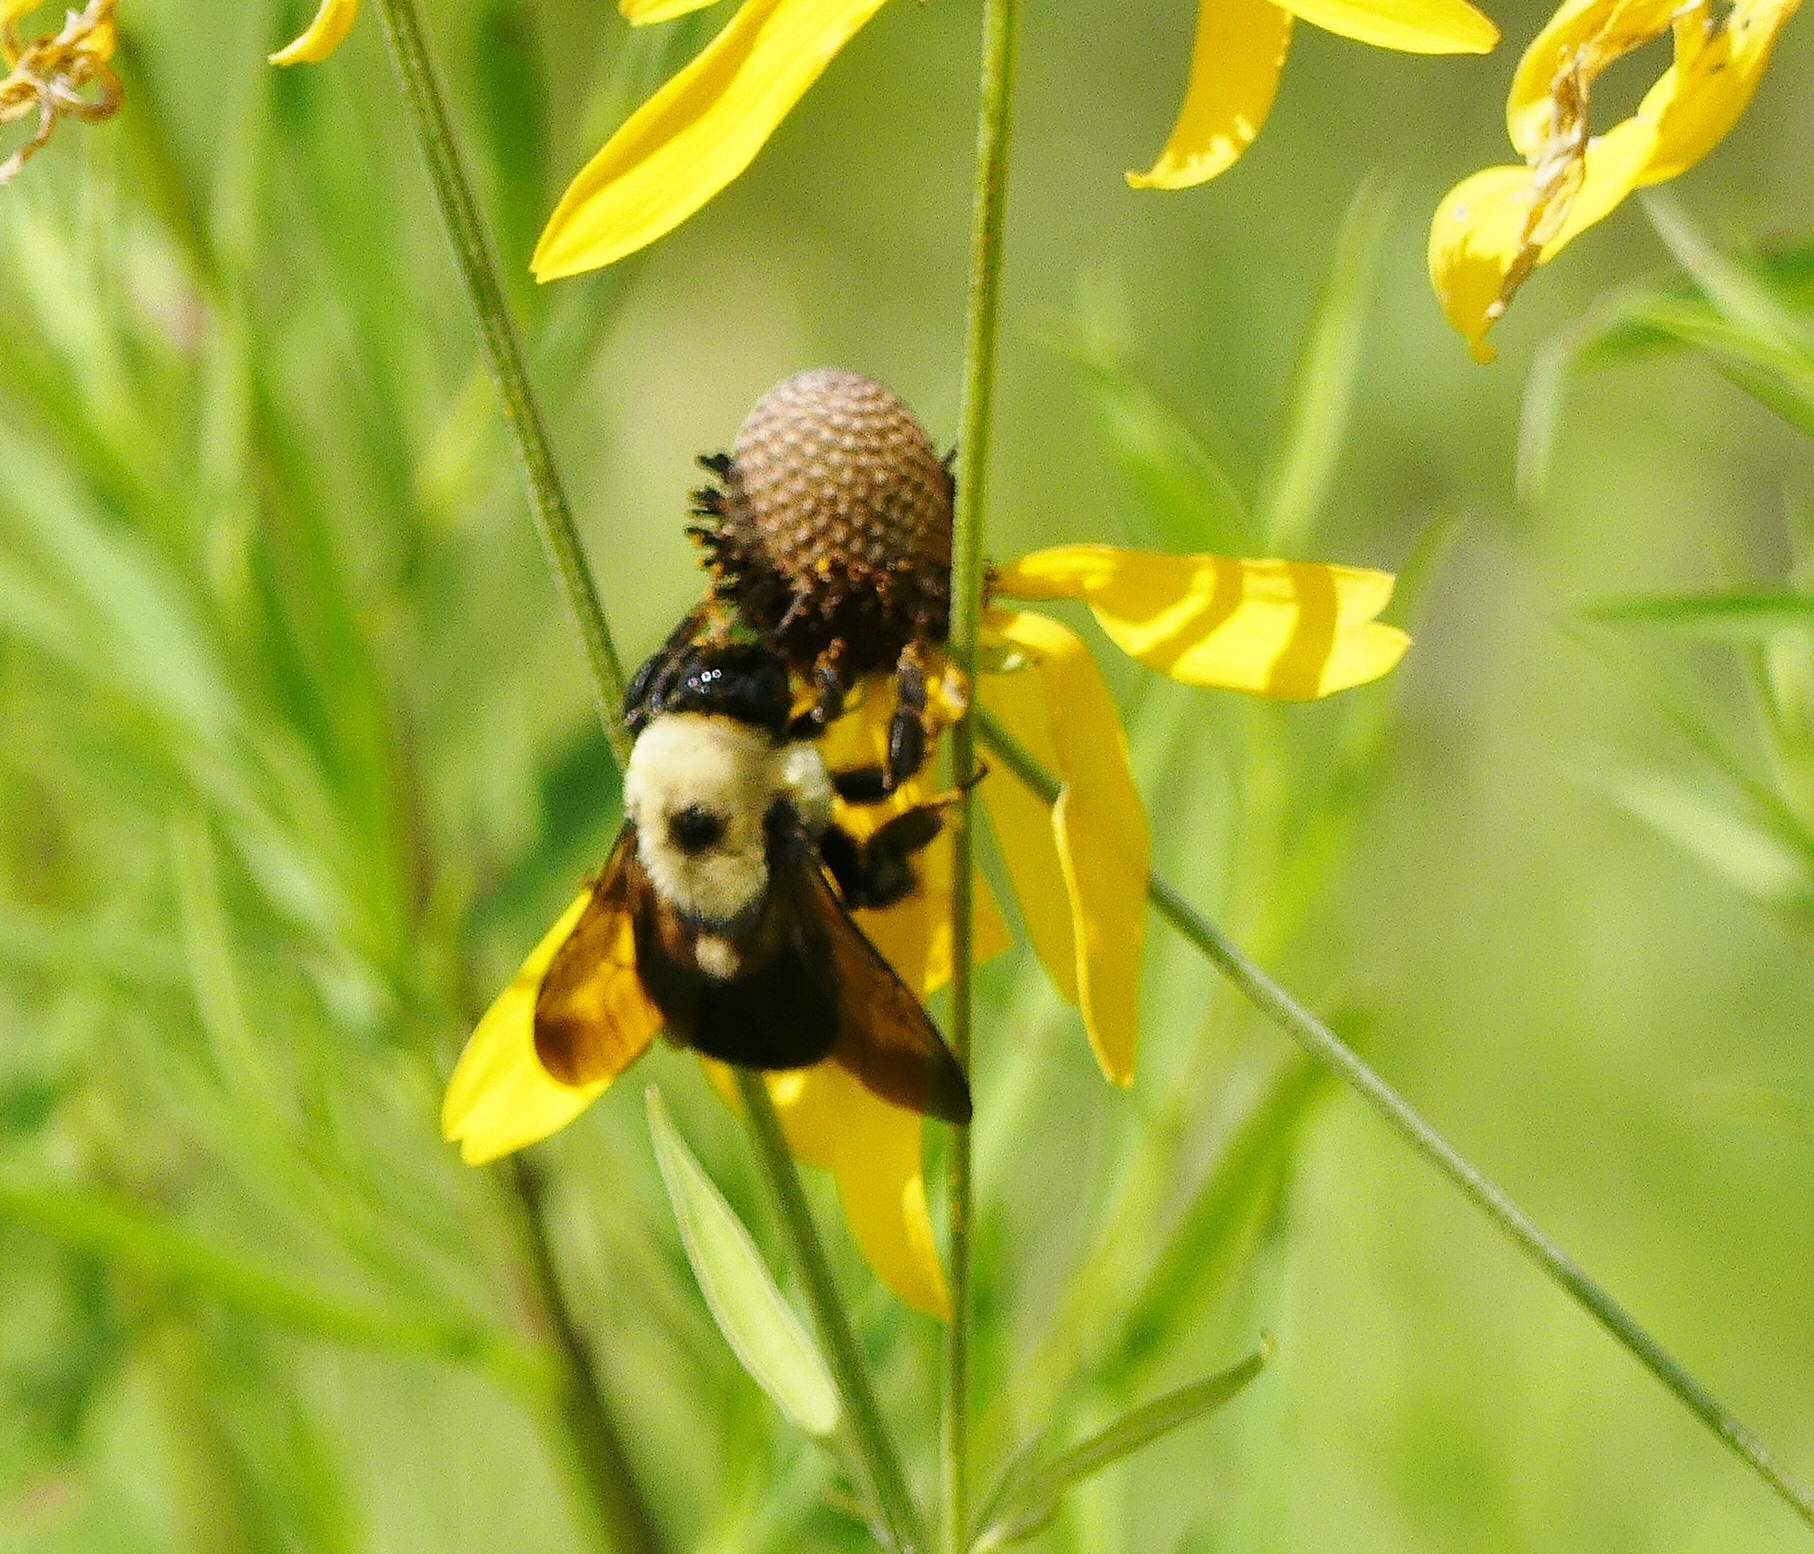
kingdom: Animalia
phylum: Arthropoda
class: Insecta
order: Hymenoptera
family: Apidae
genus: Bombus
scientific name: Bombus griseocollis
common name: Brown-belted bumble bee
